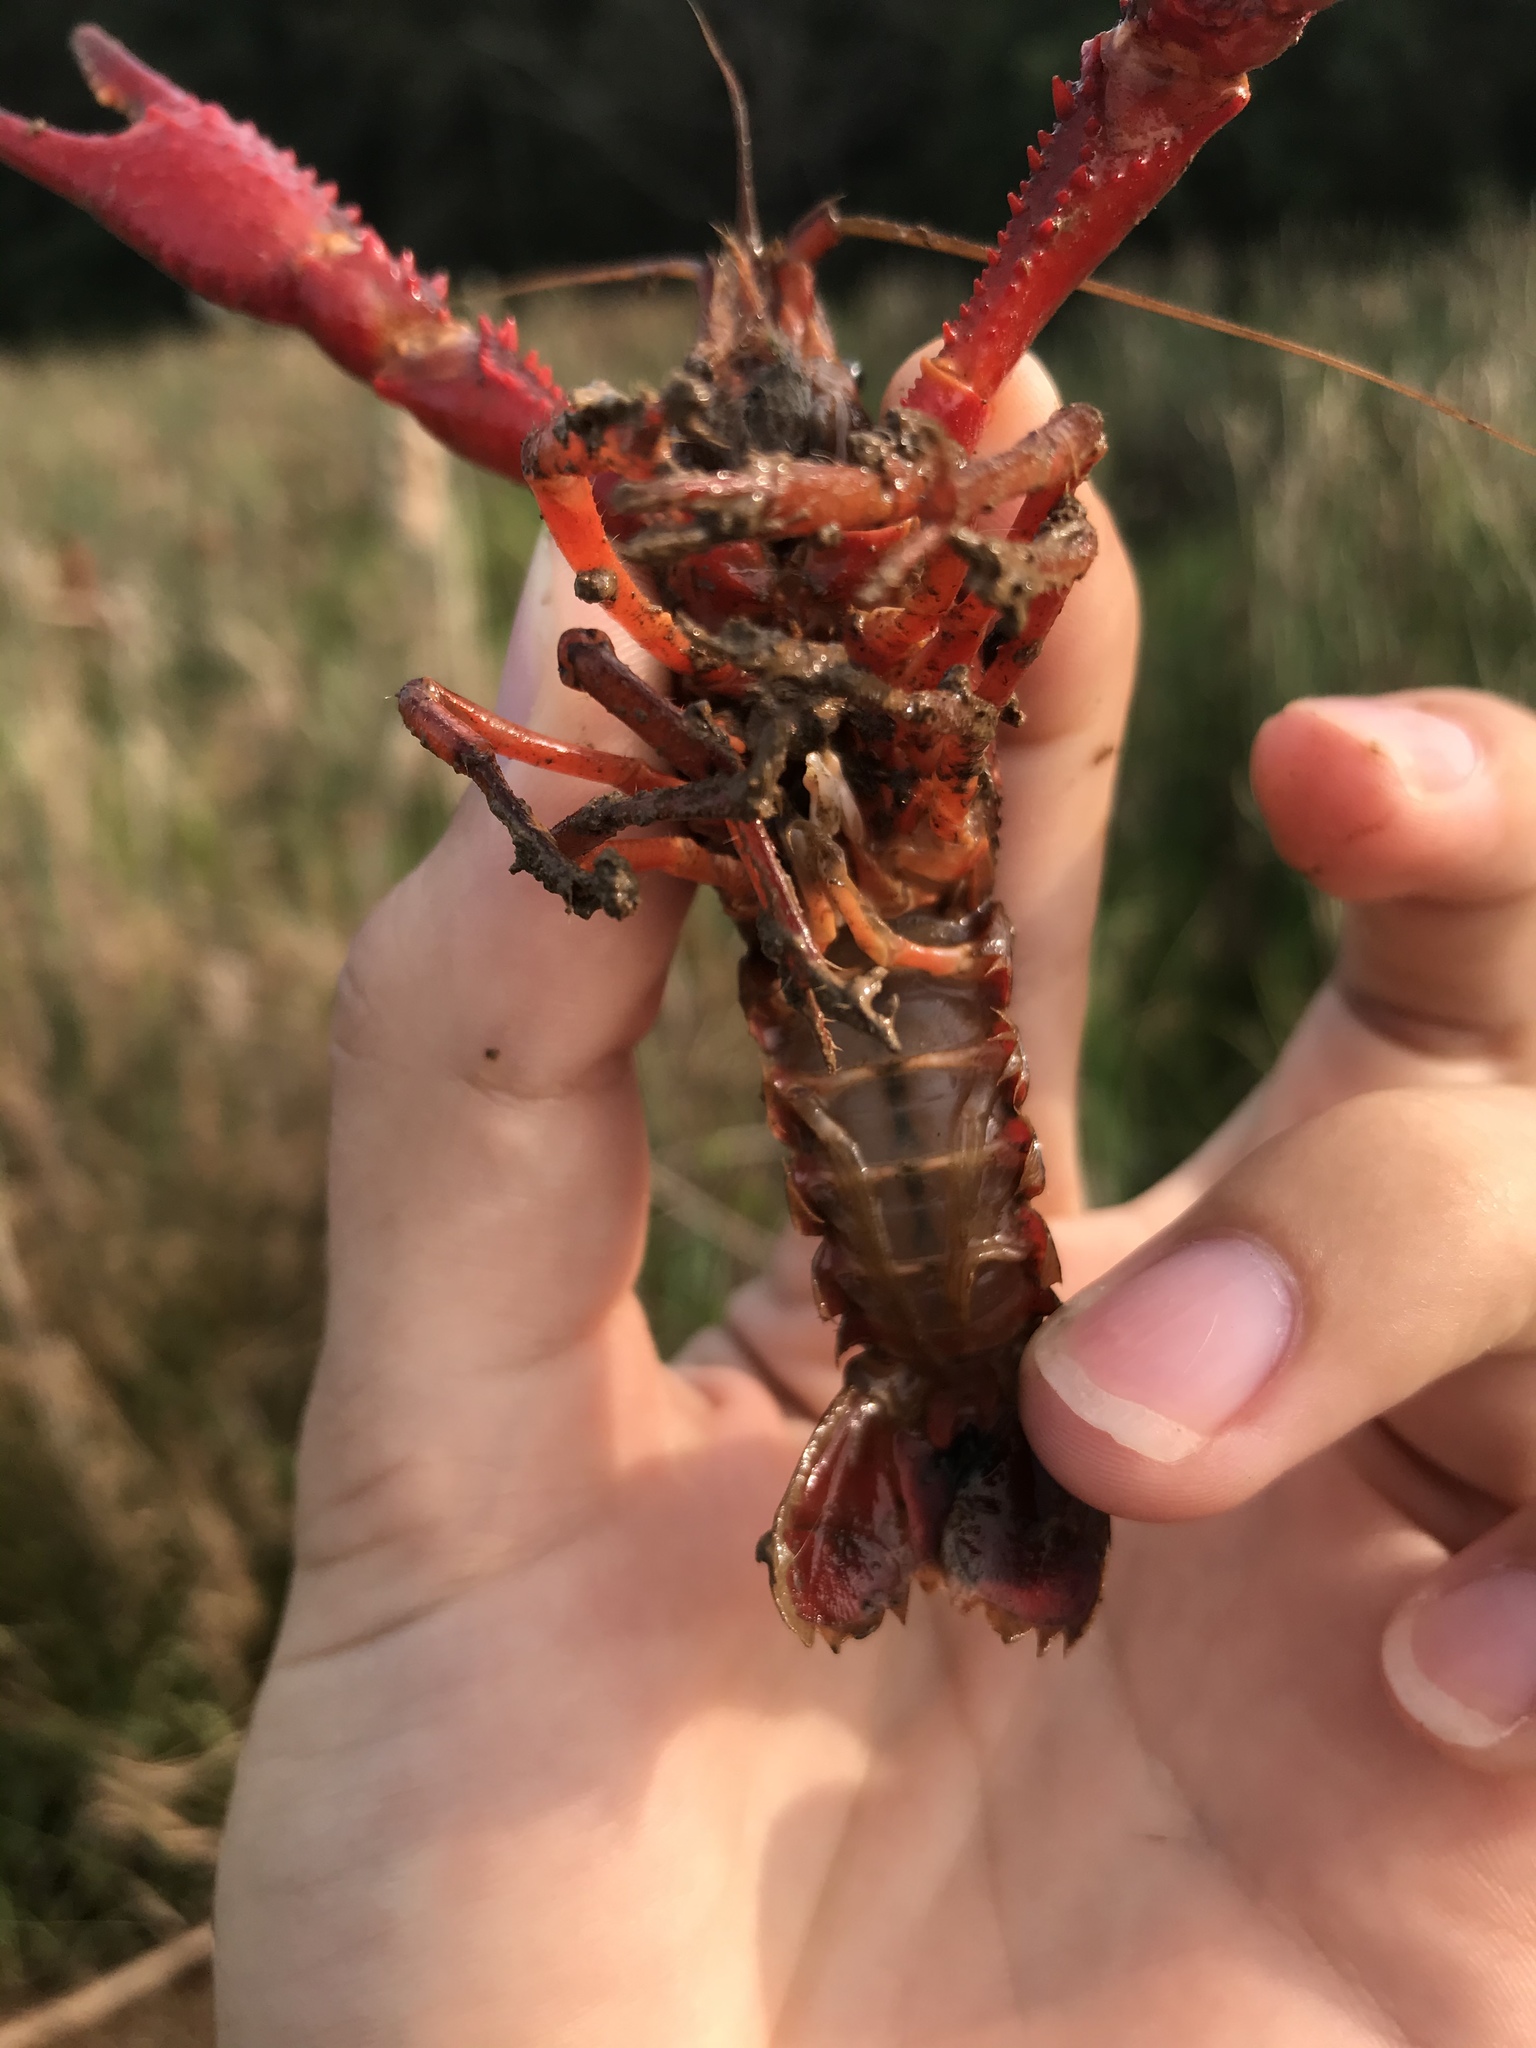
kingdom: Animalia
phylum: Arthropoda
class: Malacostraca
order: Decapoda
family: Cambaridae
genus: Procambarus
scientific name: Procambarus clarkii
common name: Red swamp crayfish
